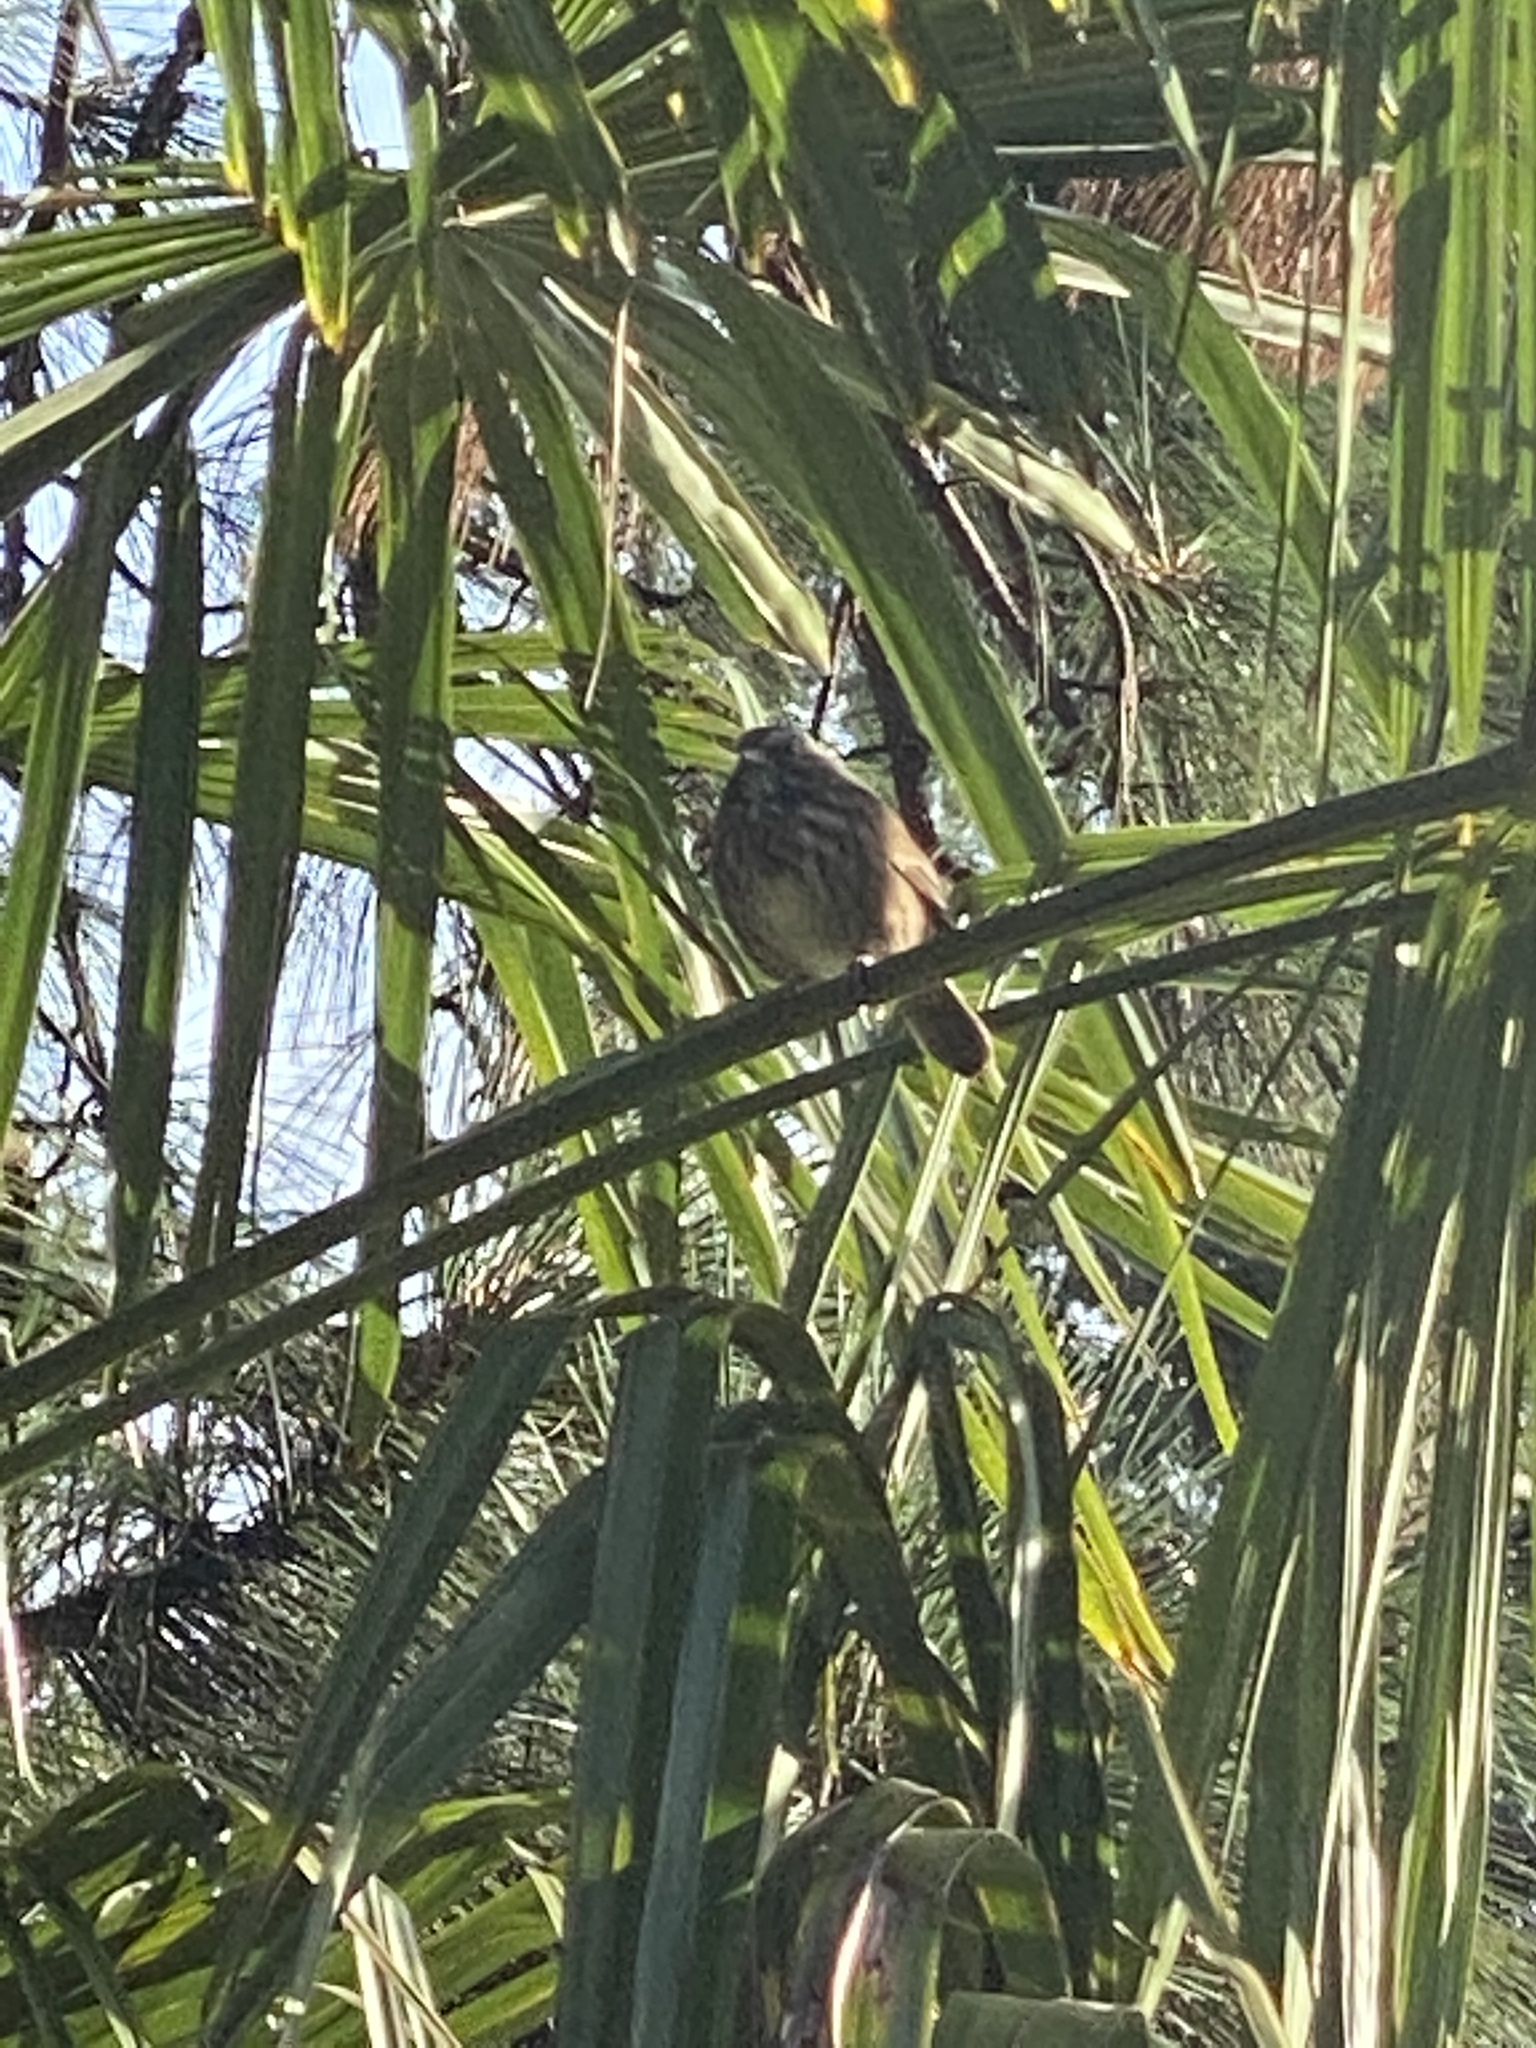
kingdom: Animalia
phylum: Chordata
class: Aves
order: Passeriformes
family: Passerellidae
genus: Melospiza
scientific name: Melospiza melodia
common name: Song sparrow
